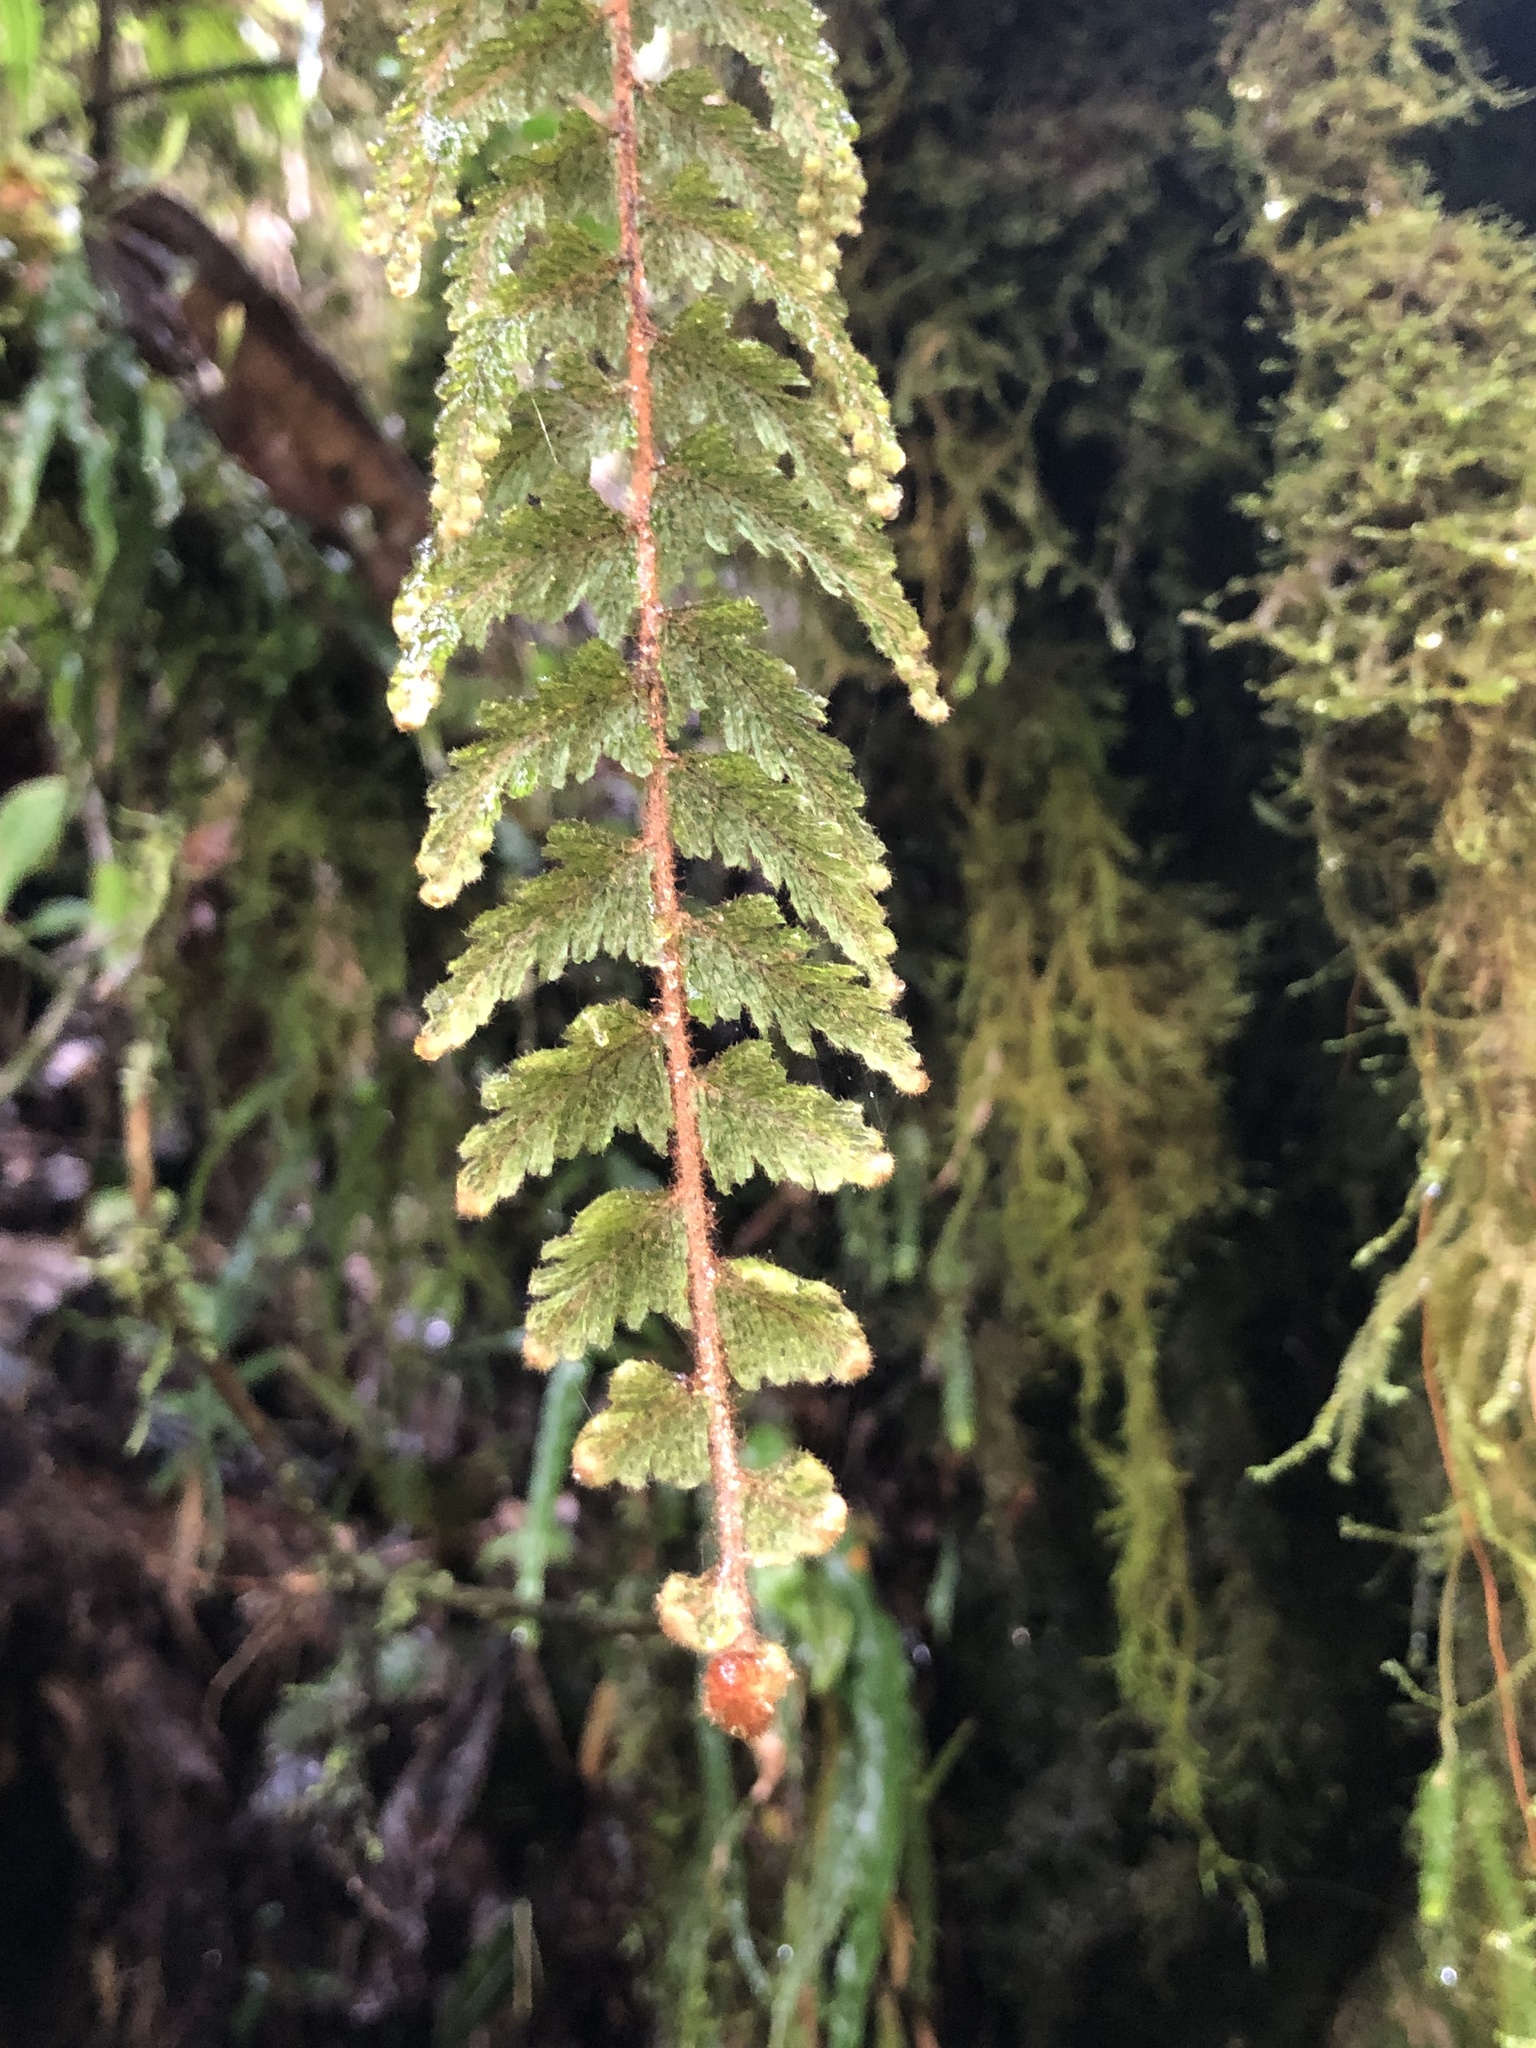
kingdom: Plantae
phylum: Tracheophyta
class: Polypodiopsida
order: Hymenophyllales
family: Hymenophyllaceae
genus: Hymenophyllum
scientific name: Hymenophyllum tomentosum
